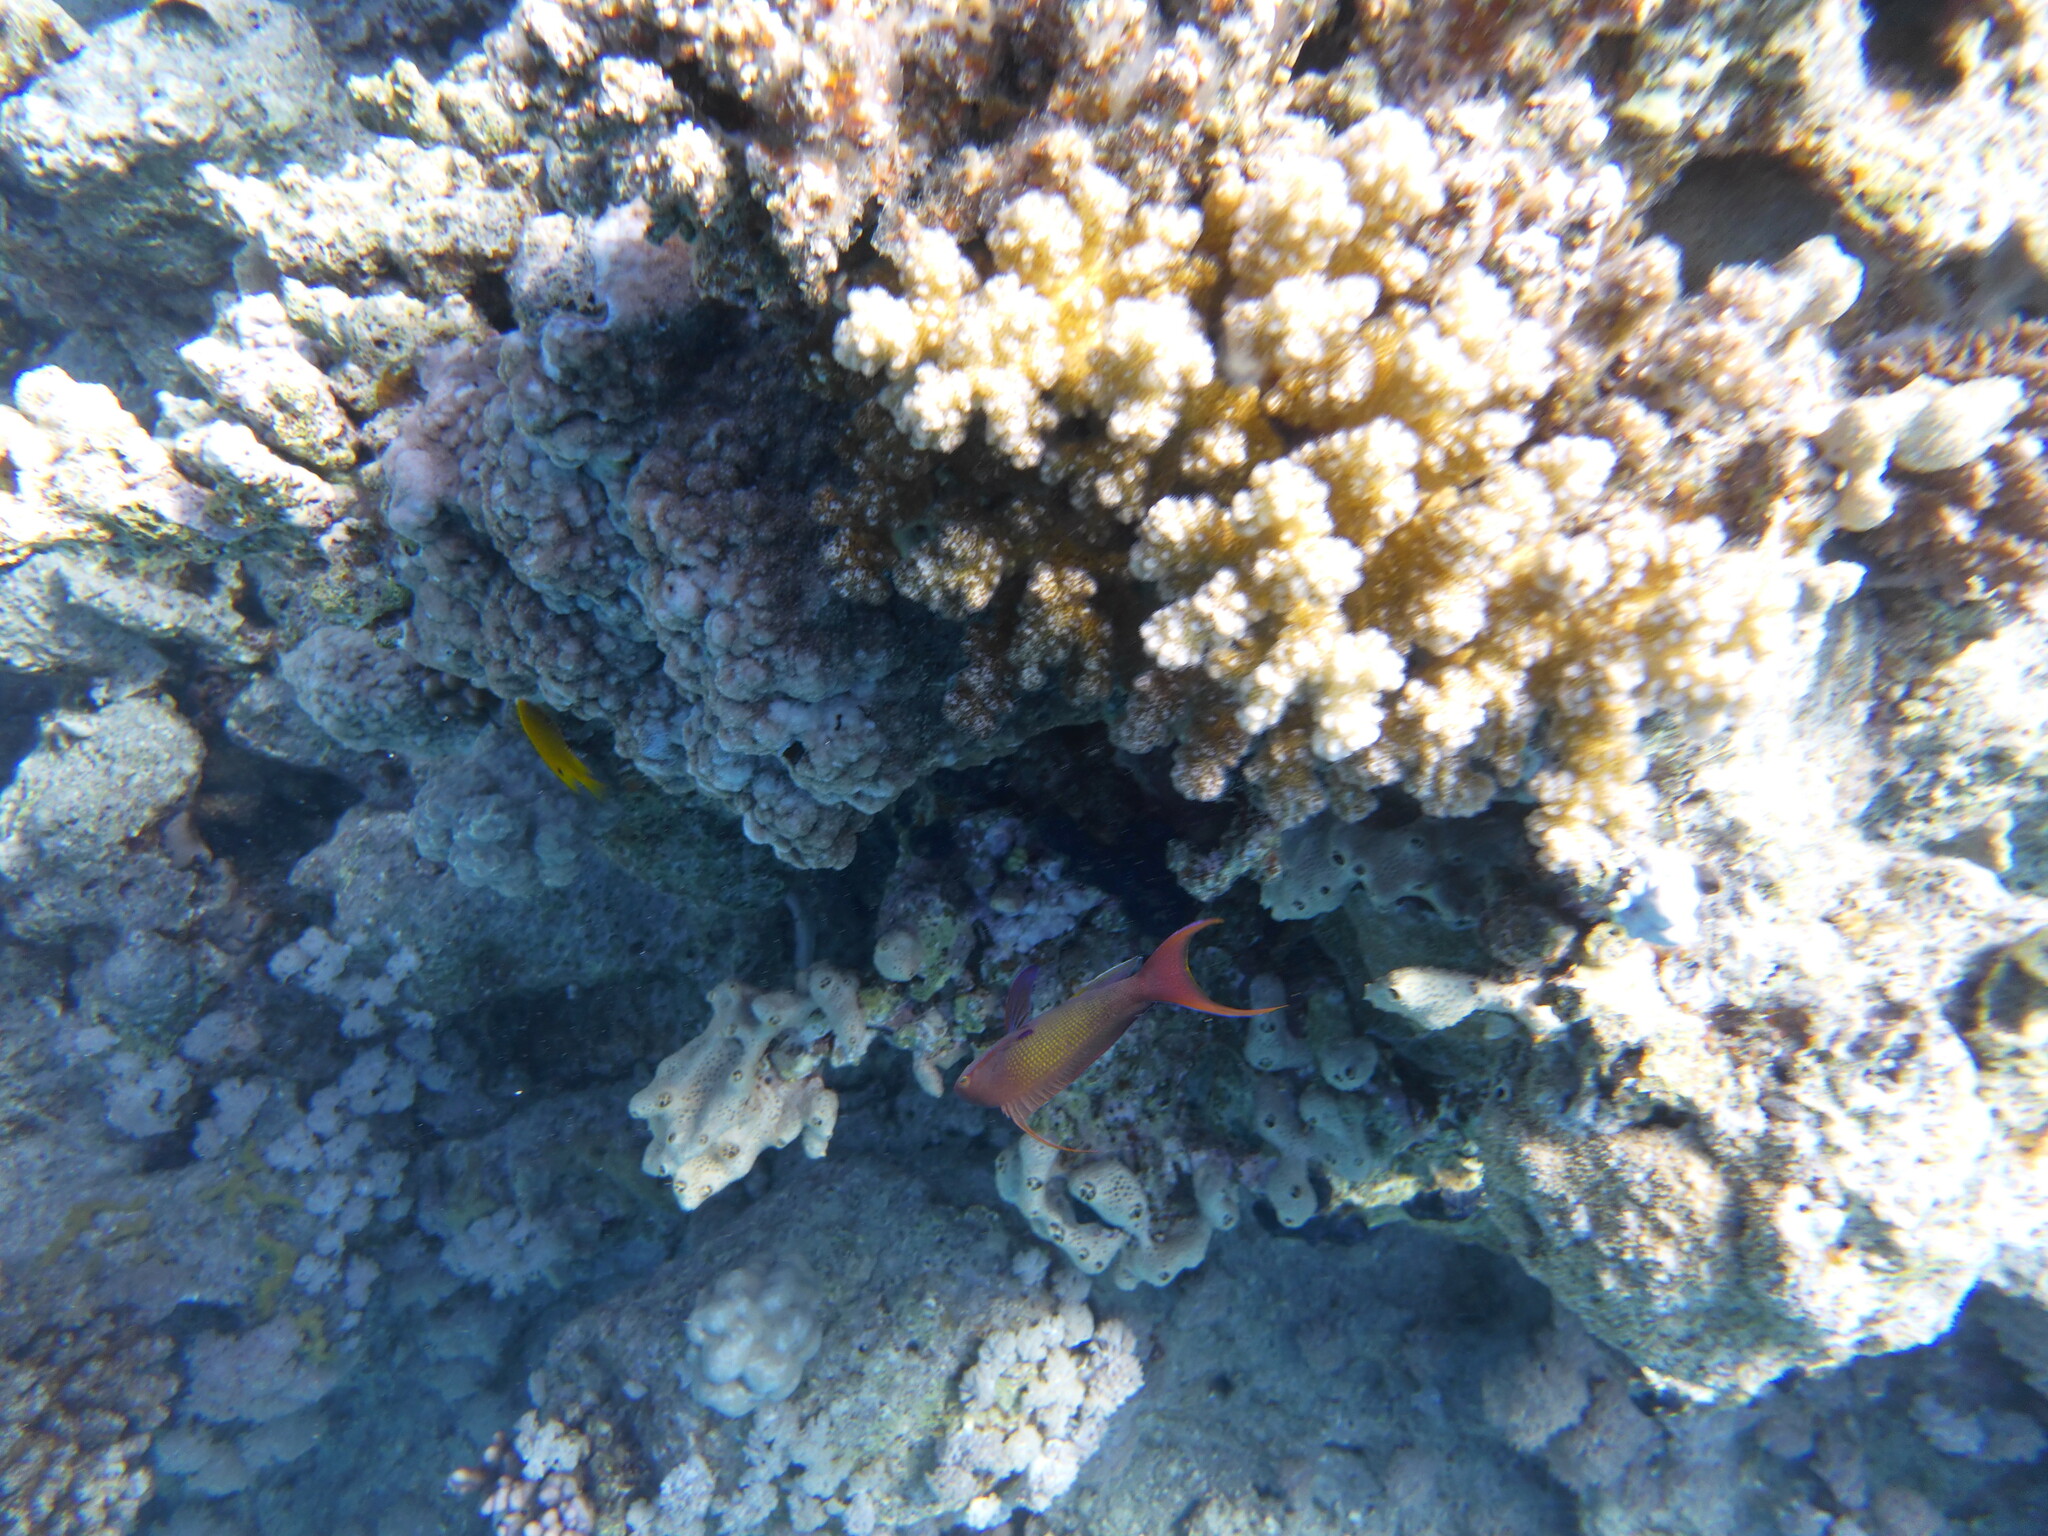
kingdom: Animalia
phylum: Chordata
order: Perciformes
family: Serranidae
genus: Pseudanthias
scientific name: Pseudanthias squamipinnis
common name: Scalefin anthias
